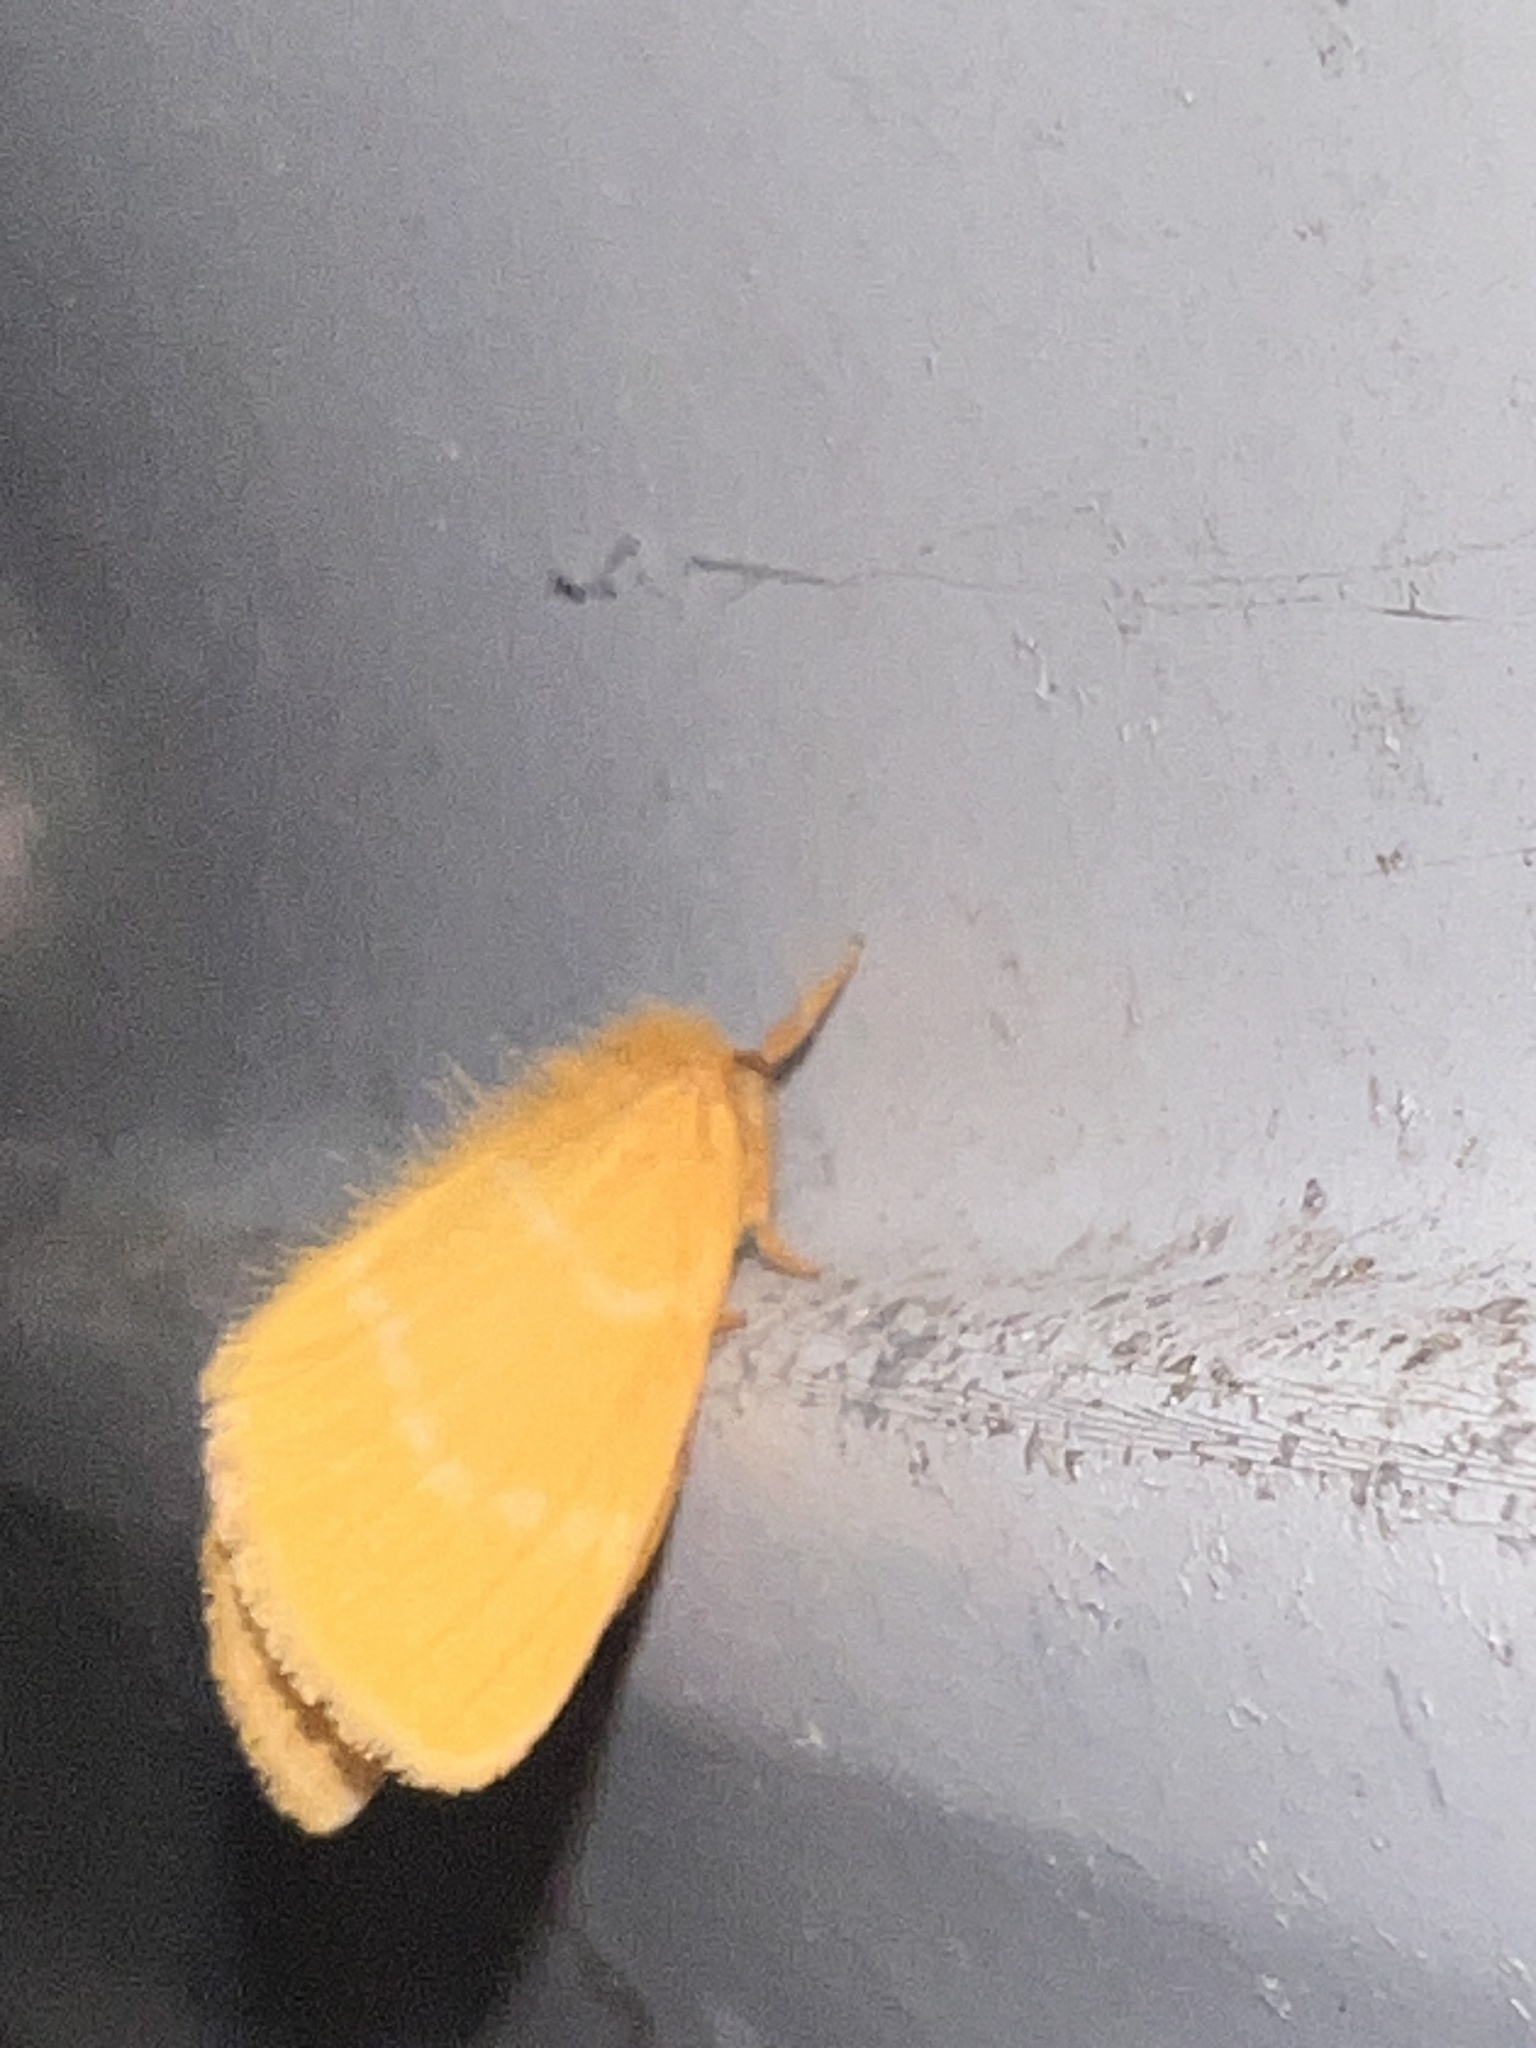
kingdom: Animalia
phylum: Arthropoda
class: Insecta
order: Lepidoptera
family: Erebidae
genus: Euproctis
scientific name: Euproctis lutea
